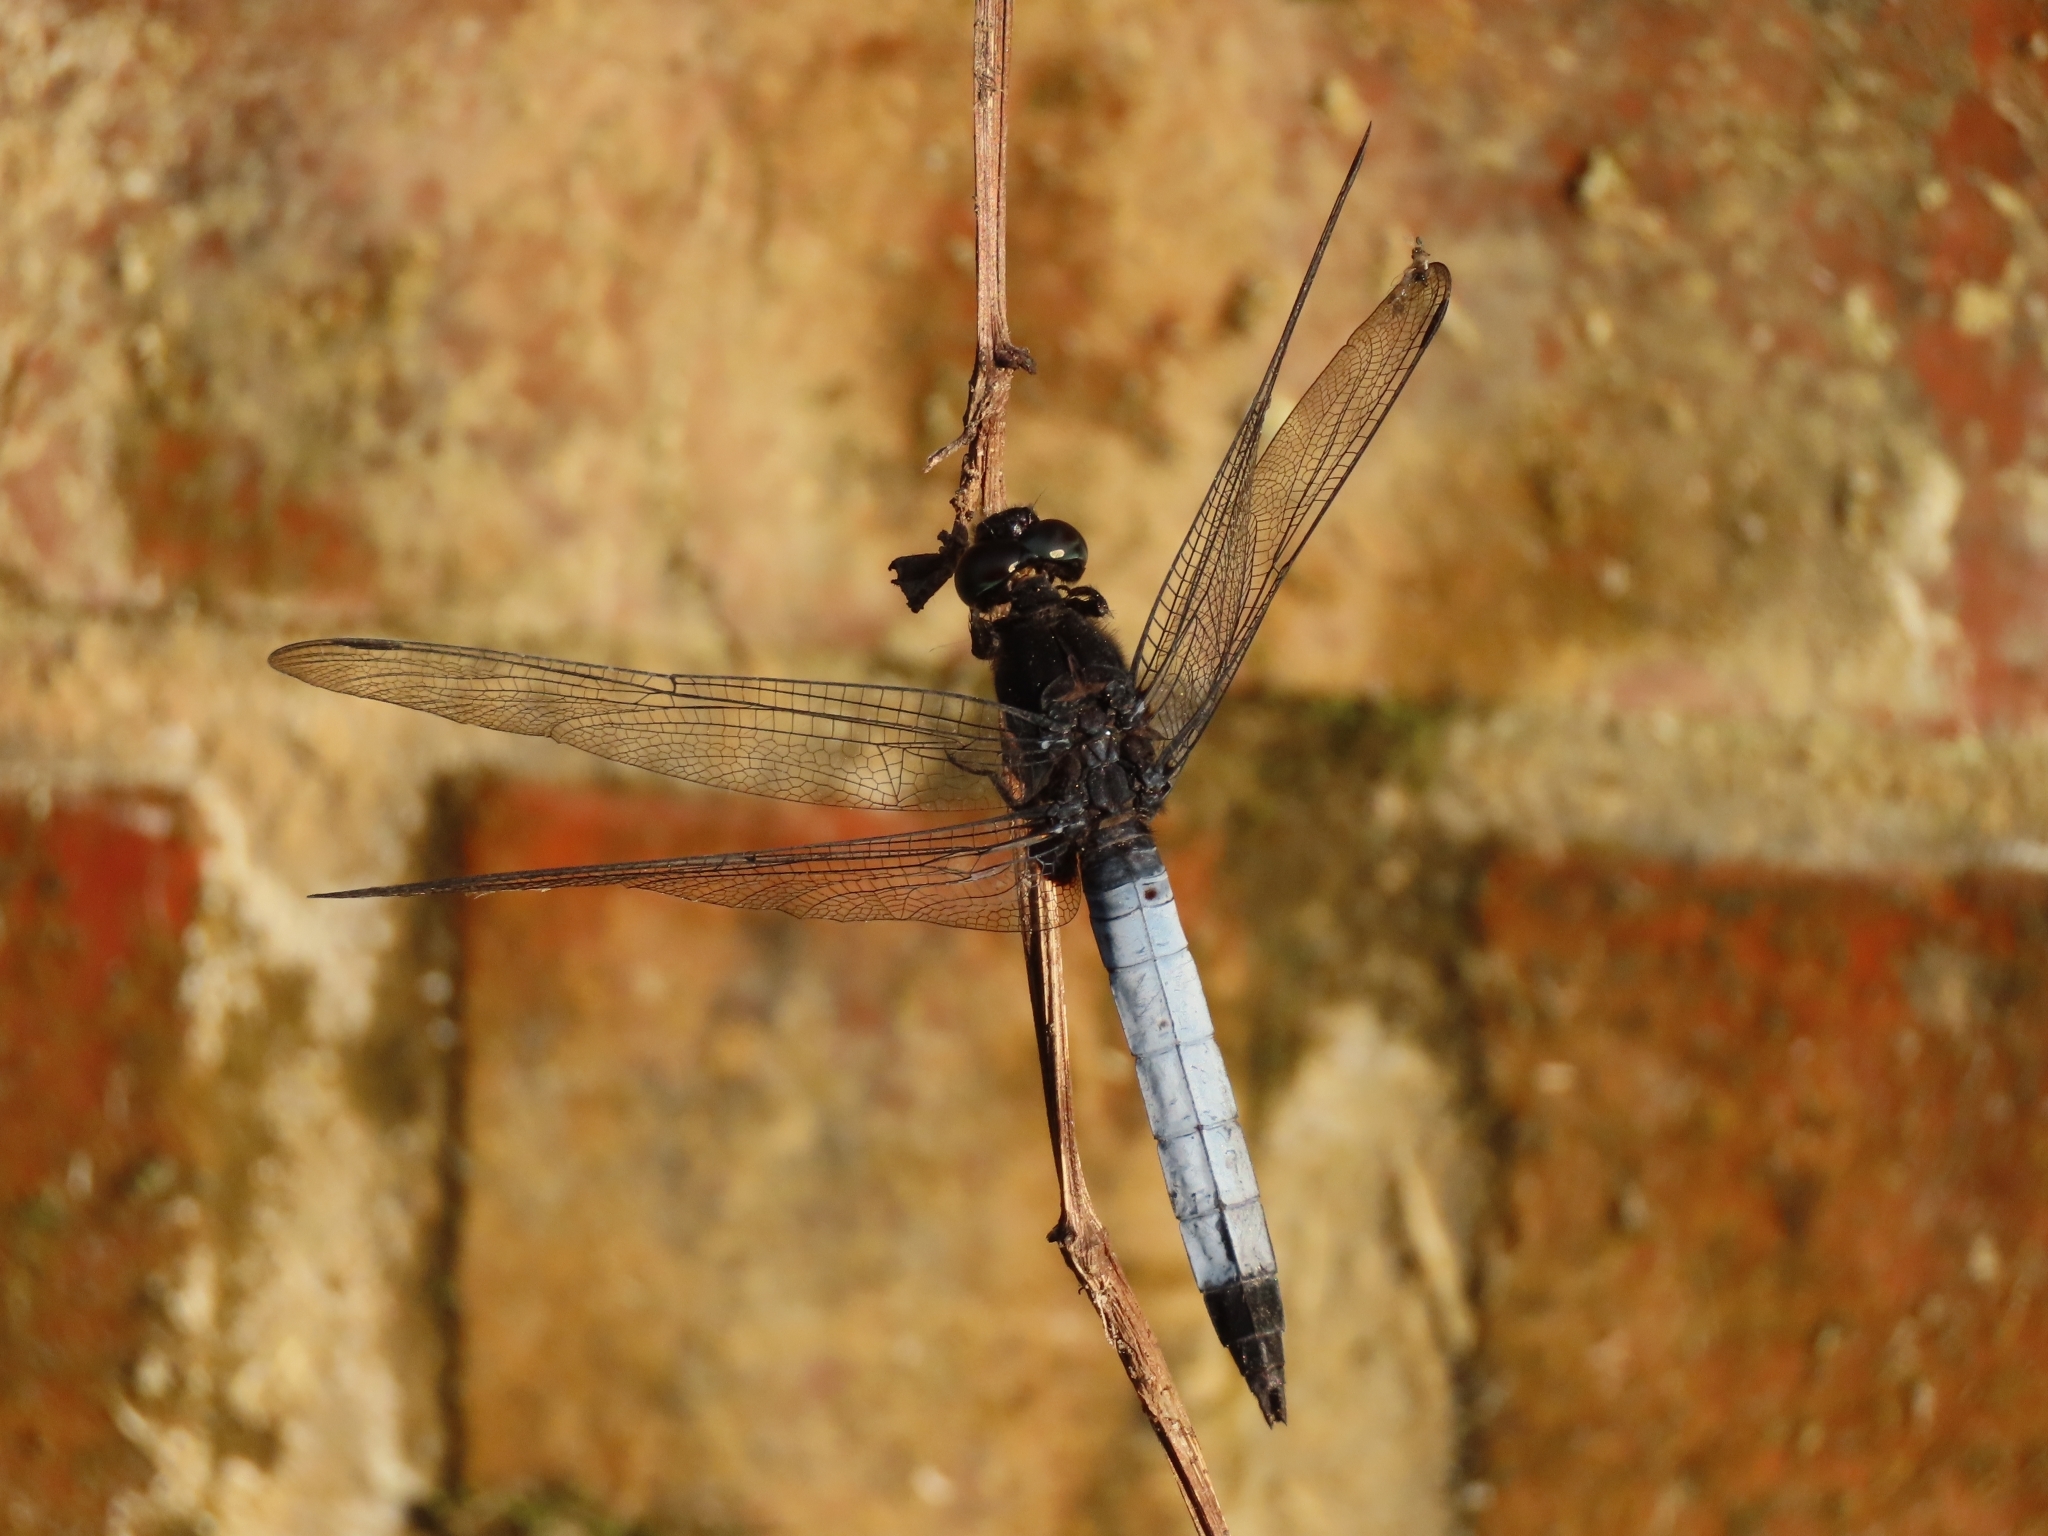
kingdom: Animalia
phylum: Arthropoda
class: Insecta
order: Odonata
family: Libellulidae
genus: Orthetrum
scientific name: Orthetrum triangulare
